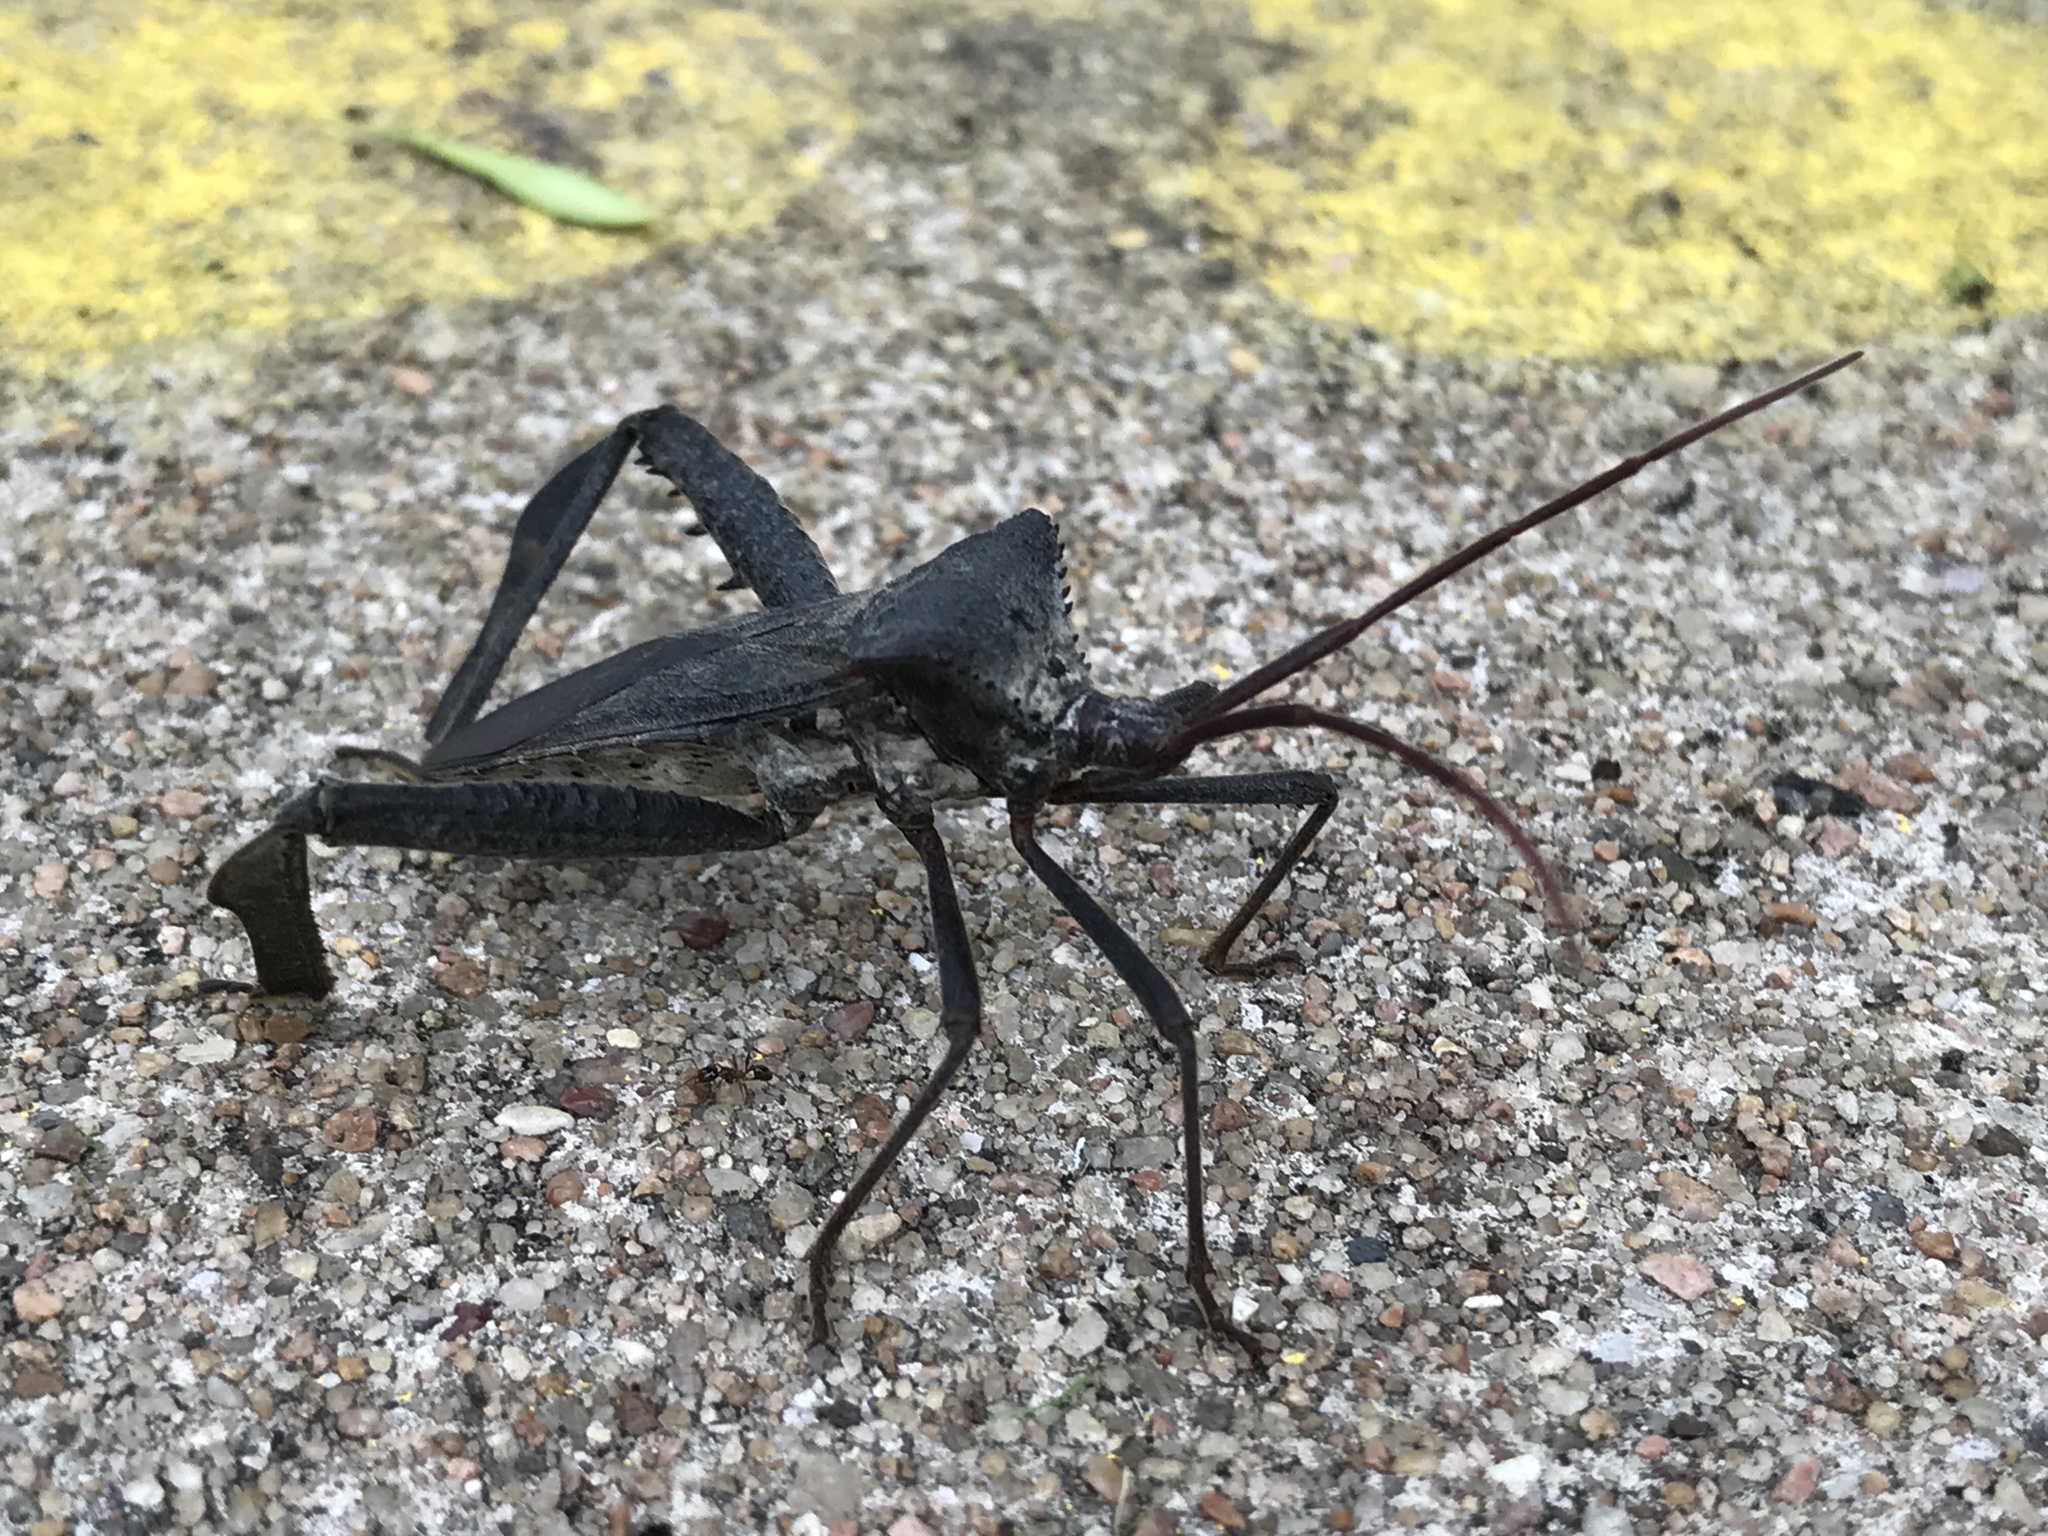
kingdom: Animalia
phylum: Arthropoda
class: Insecta
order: Hemiptera
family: Coreidae
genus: Acanthocephala
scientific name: Acanthocephala declivis
